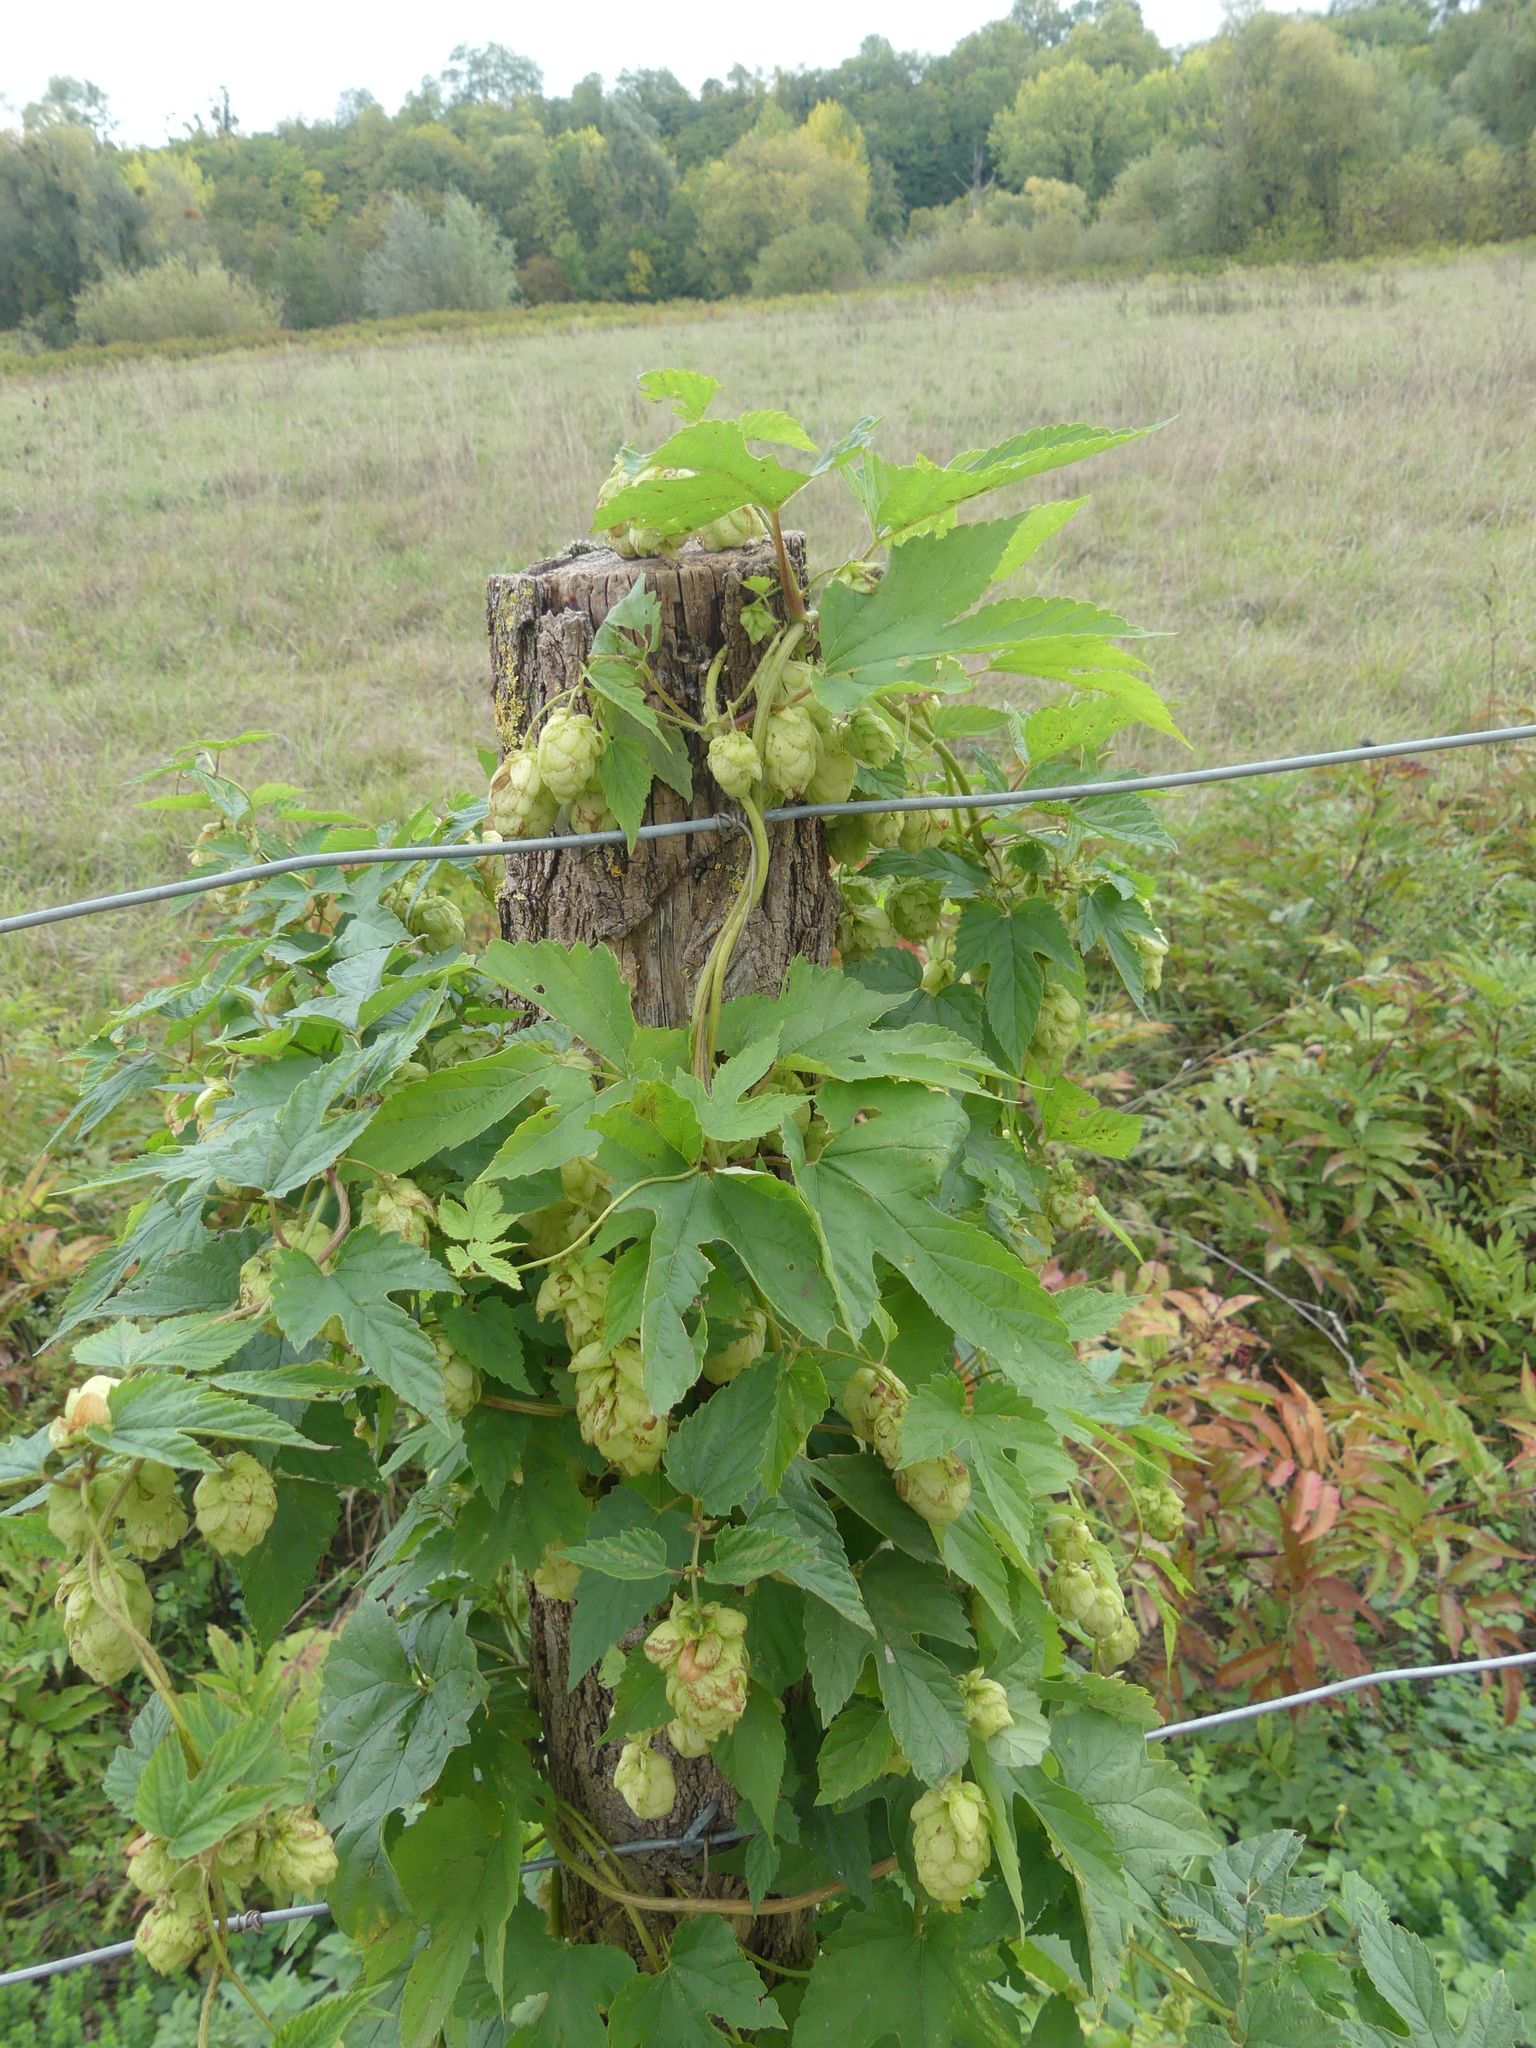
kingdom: Plantae
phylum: Tracheophyta
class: Magnoliopsida
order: Rosales
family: Cannabaceae
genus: Humulus
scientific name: Humulus lupulus
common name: Hop
